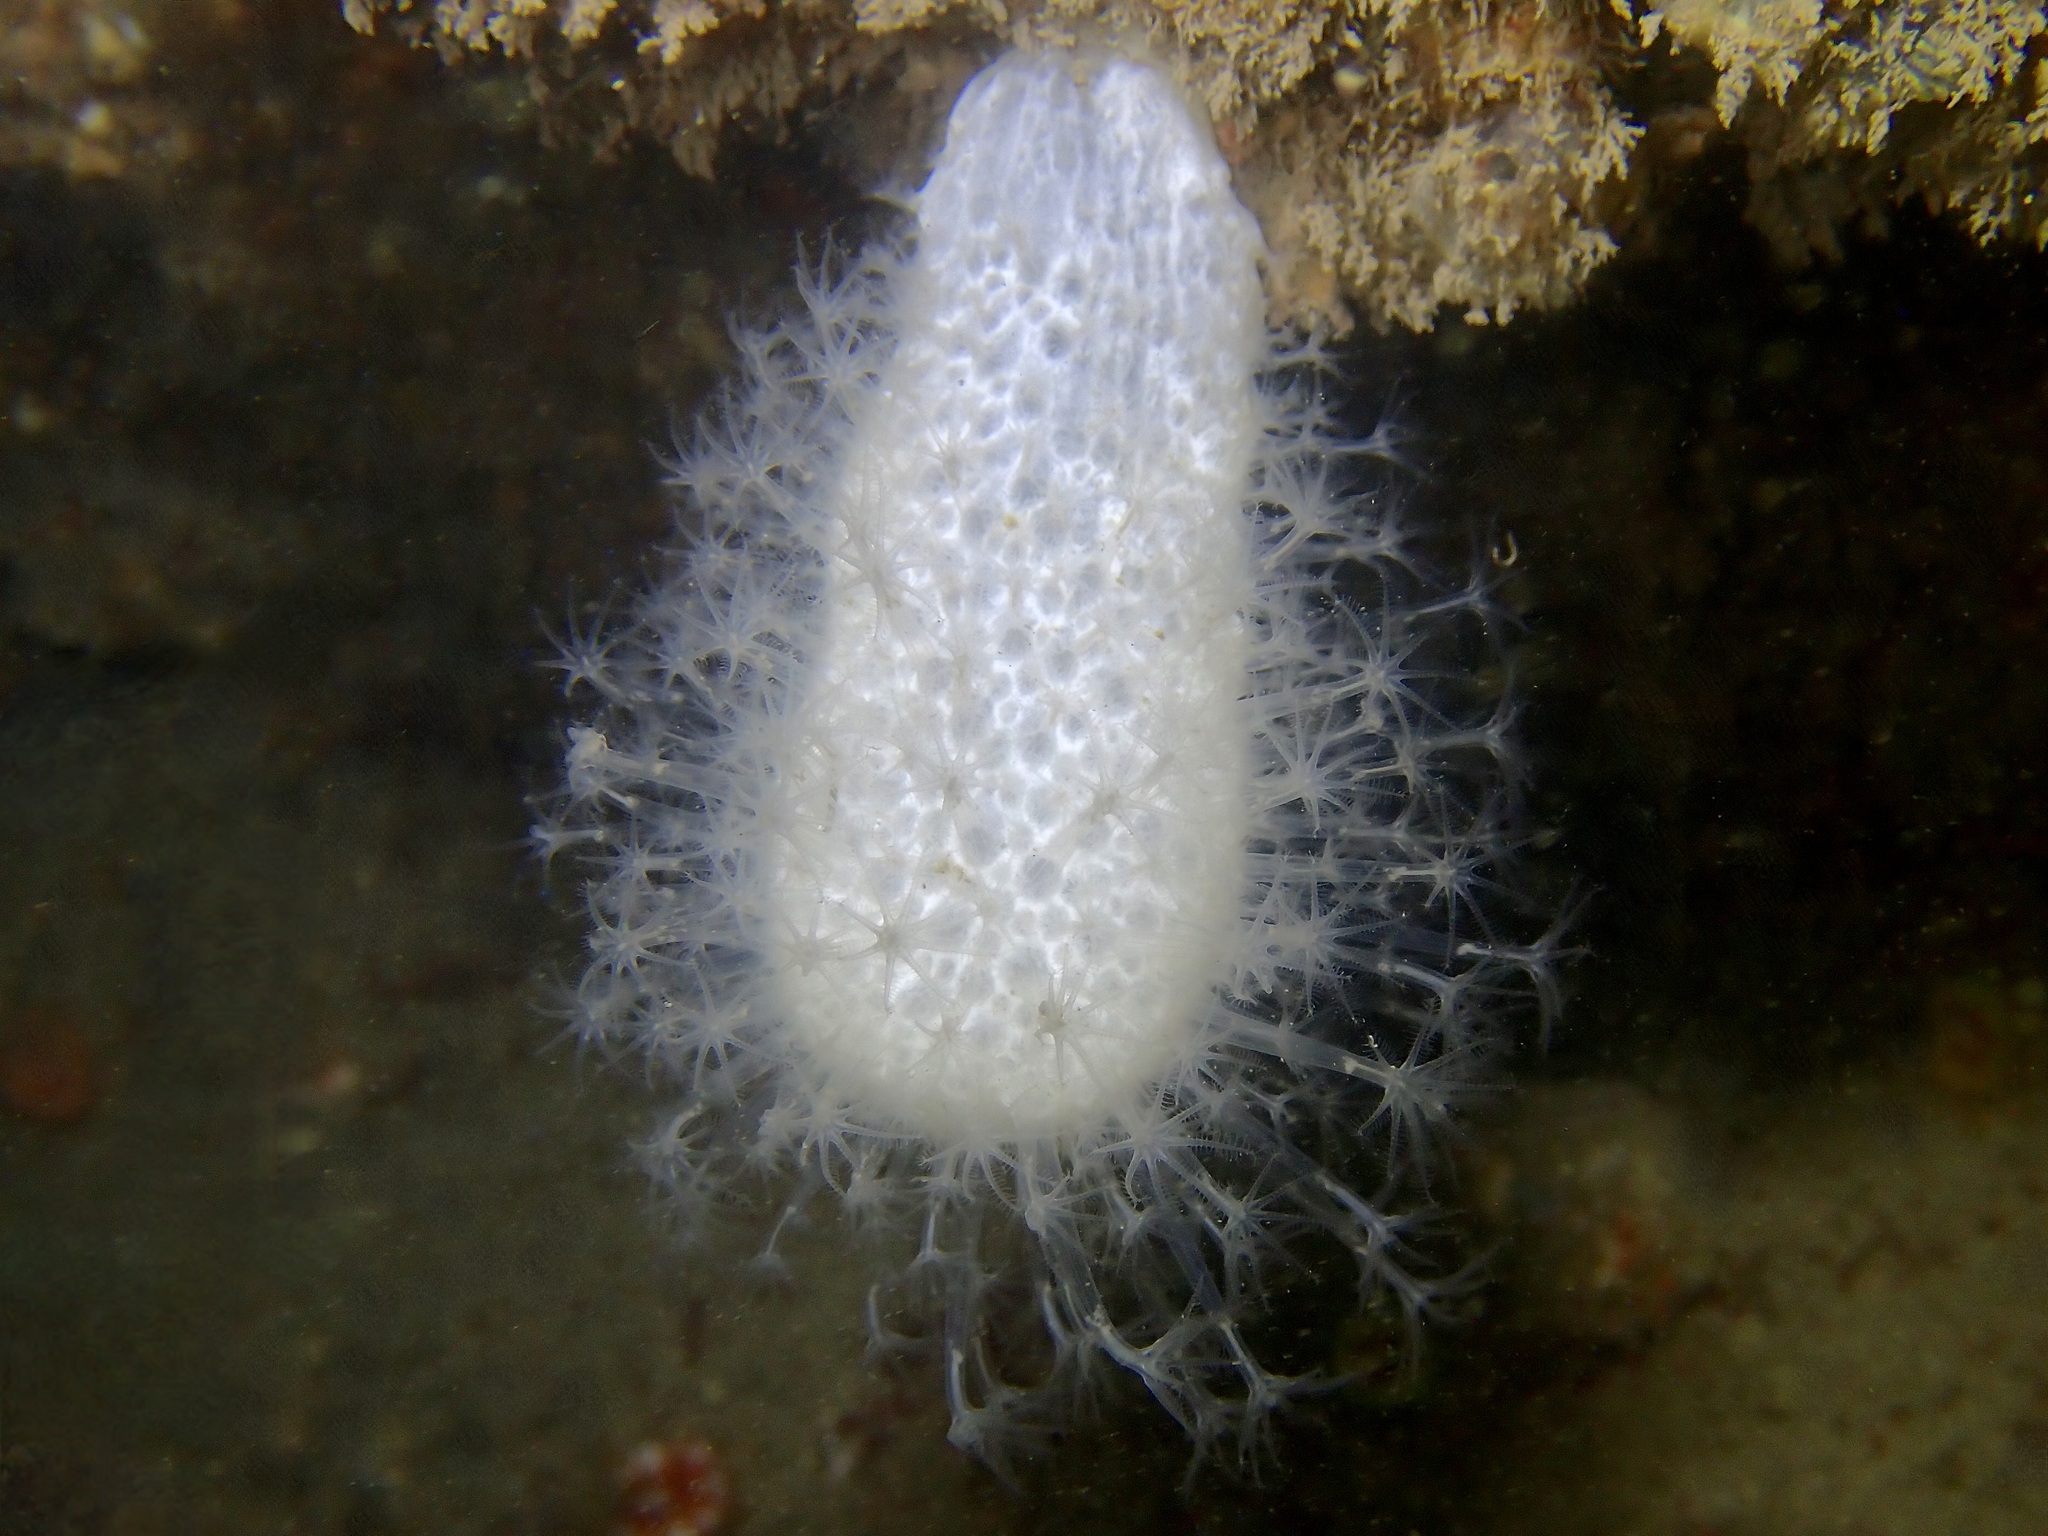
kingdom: Animalia
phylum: Cnidaria
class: Anthozoa
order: Malacalcyonacea
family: Alcyoniidae
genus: Alcyonium
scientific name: Alcyonium digitatum
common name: Dead man's fingers
